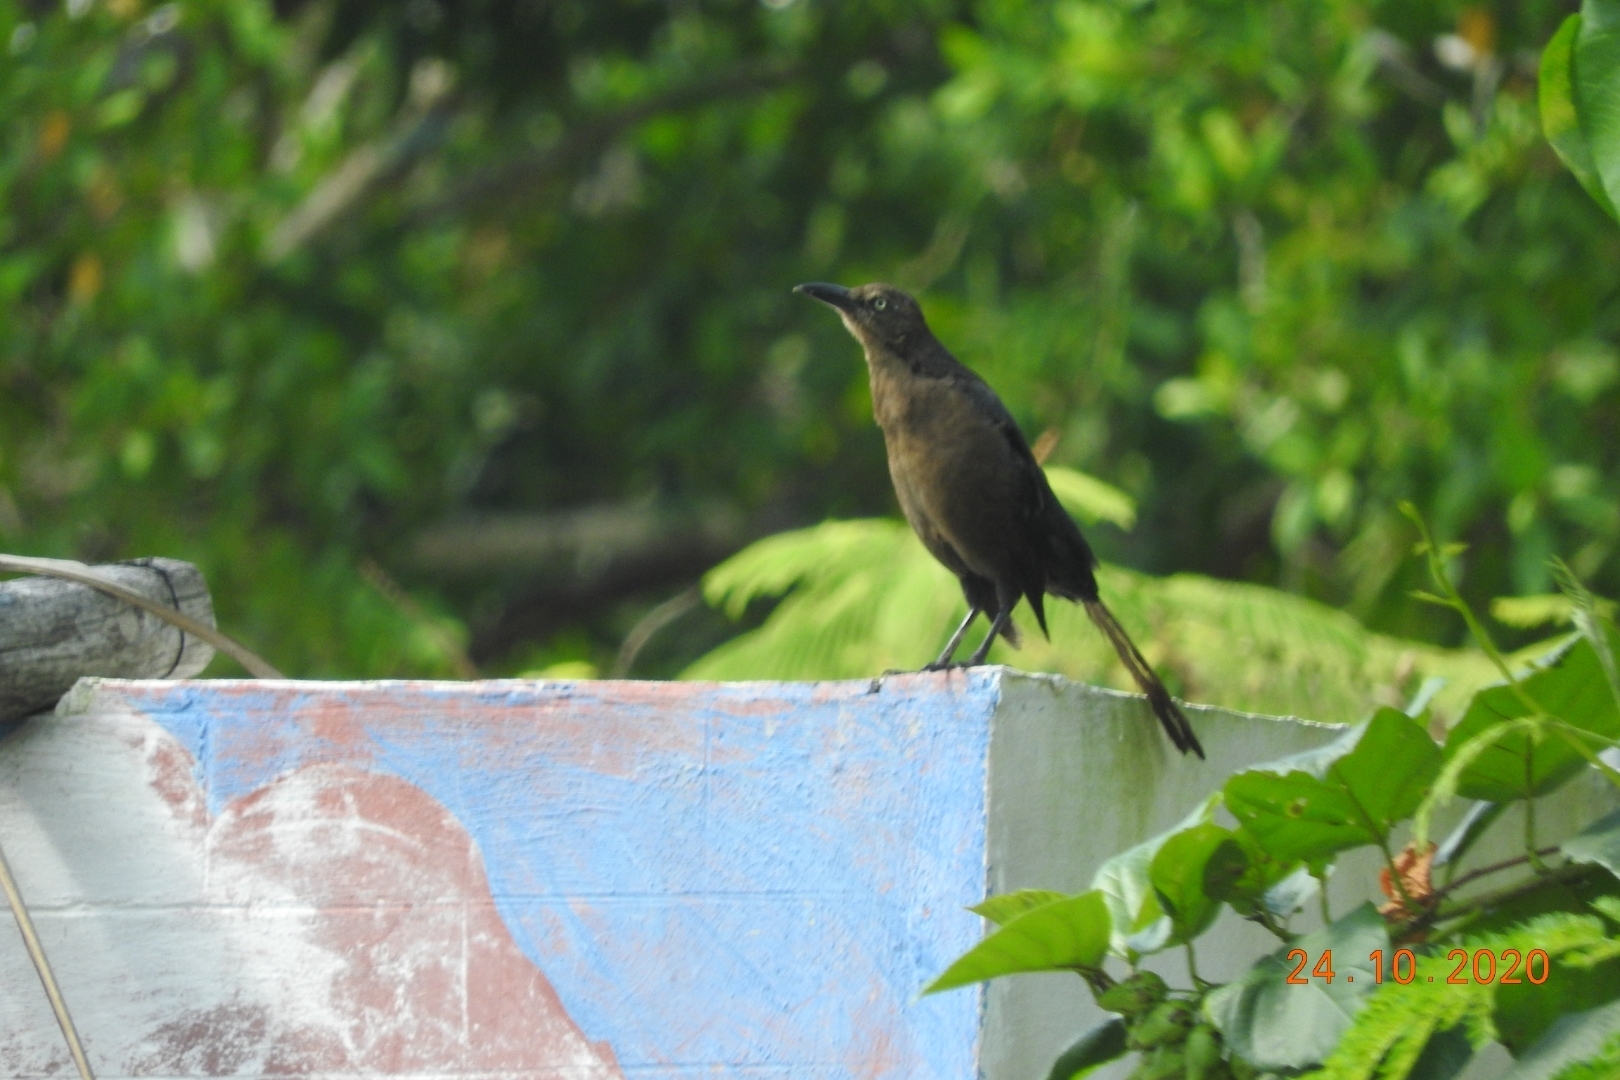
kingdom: Animalia
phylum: Chordata
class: Aves
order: Passeriformes
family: Icteridae
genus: Quiscalus
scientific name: Quiscalus mexicanus
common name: Great-tailed grackle
